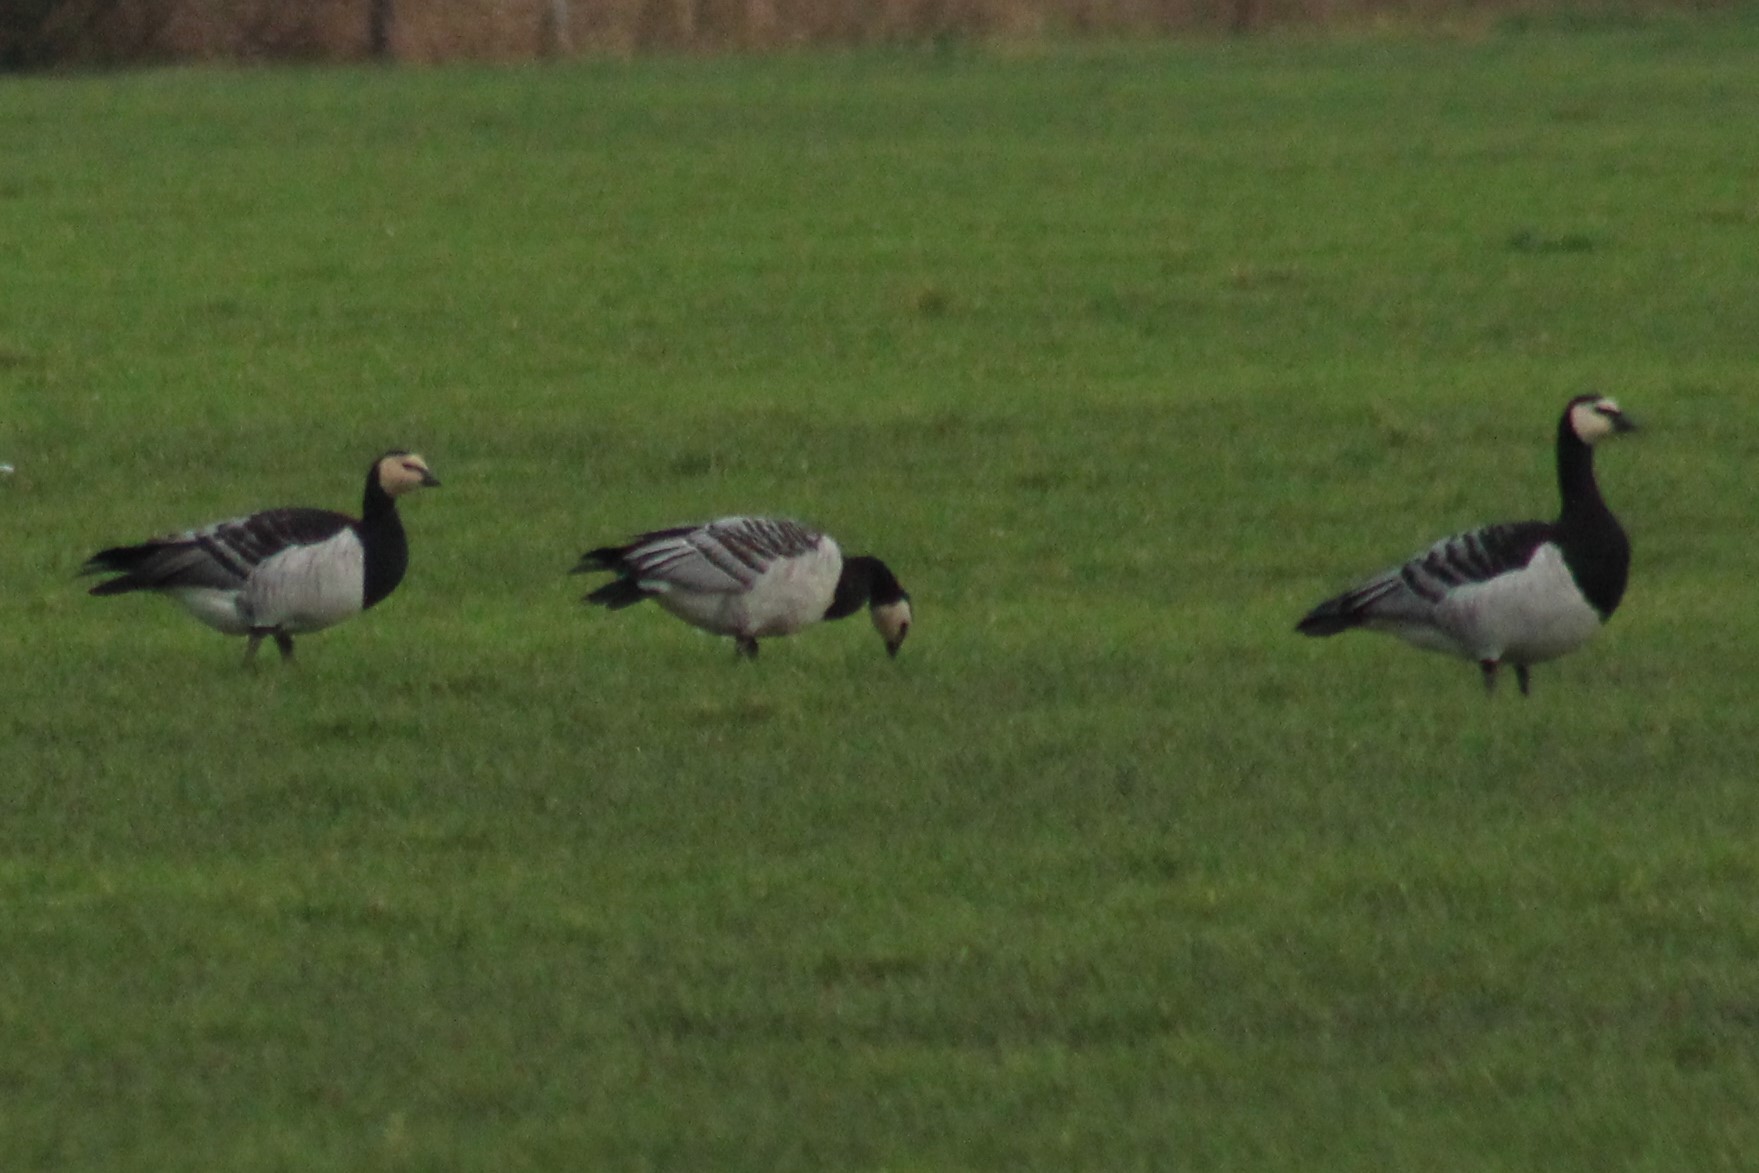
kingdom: Animalia
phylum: Chordata
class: Aves
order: Anseriformes
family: Anatidae
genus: Branta
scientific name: Branta leucopsis
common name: Barnacle goose
